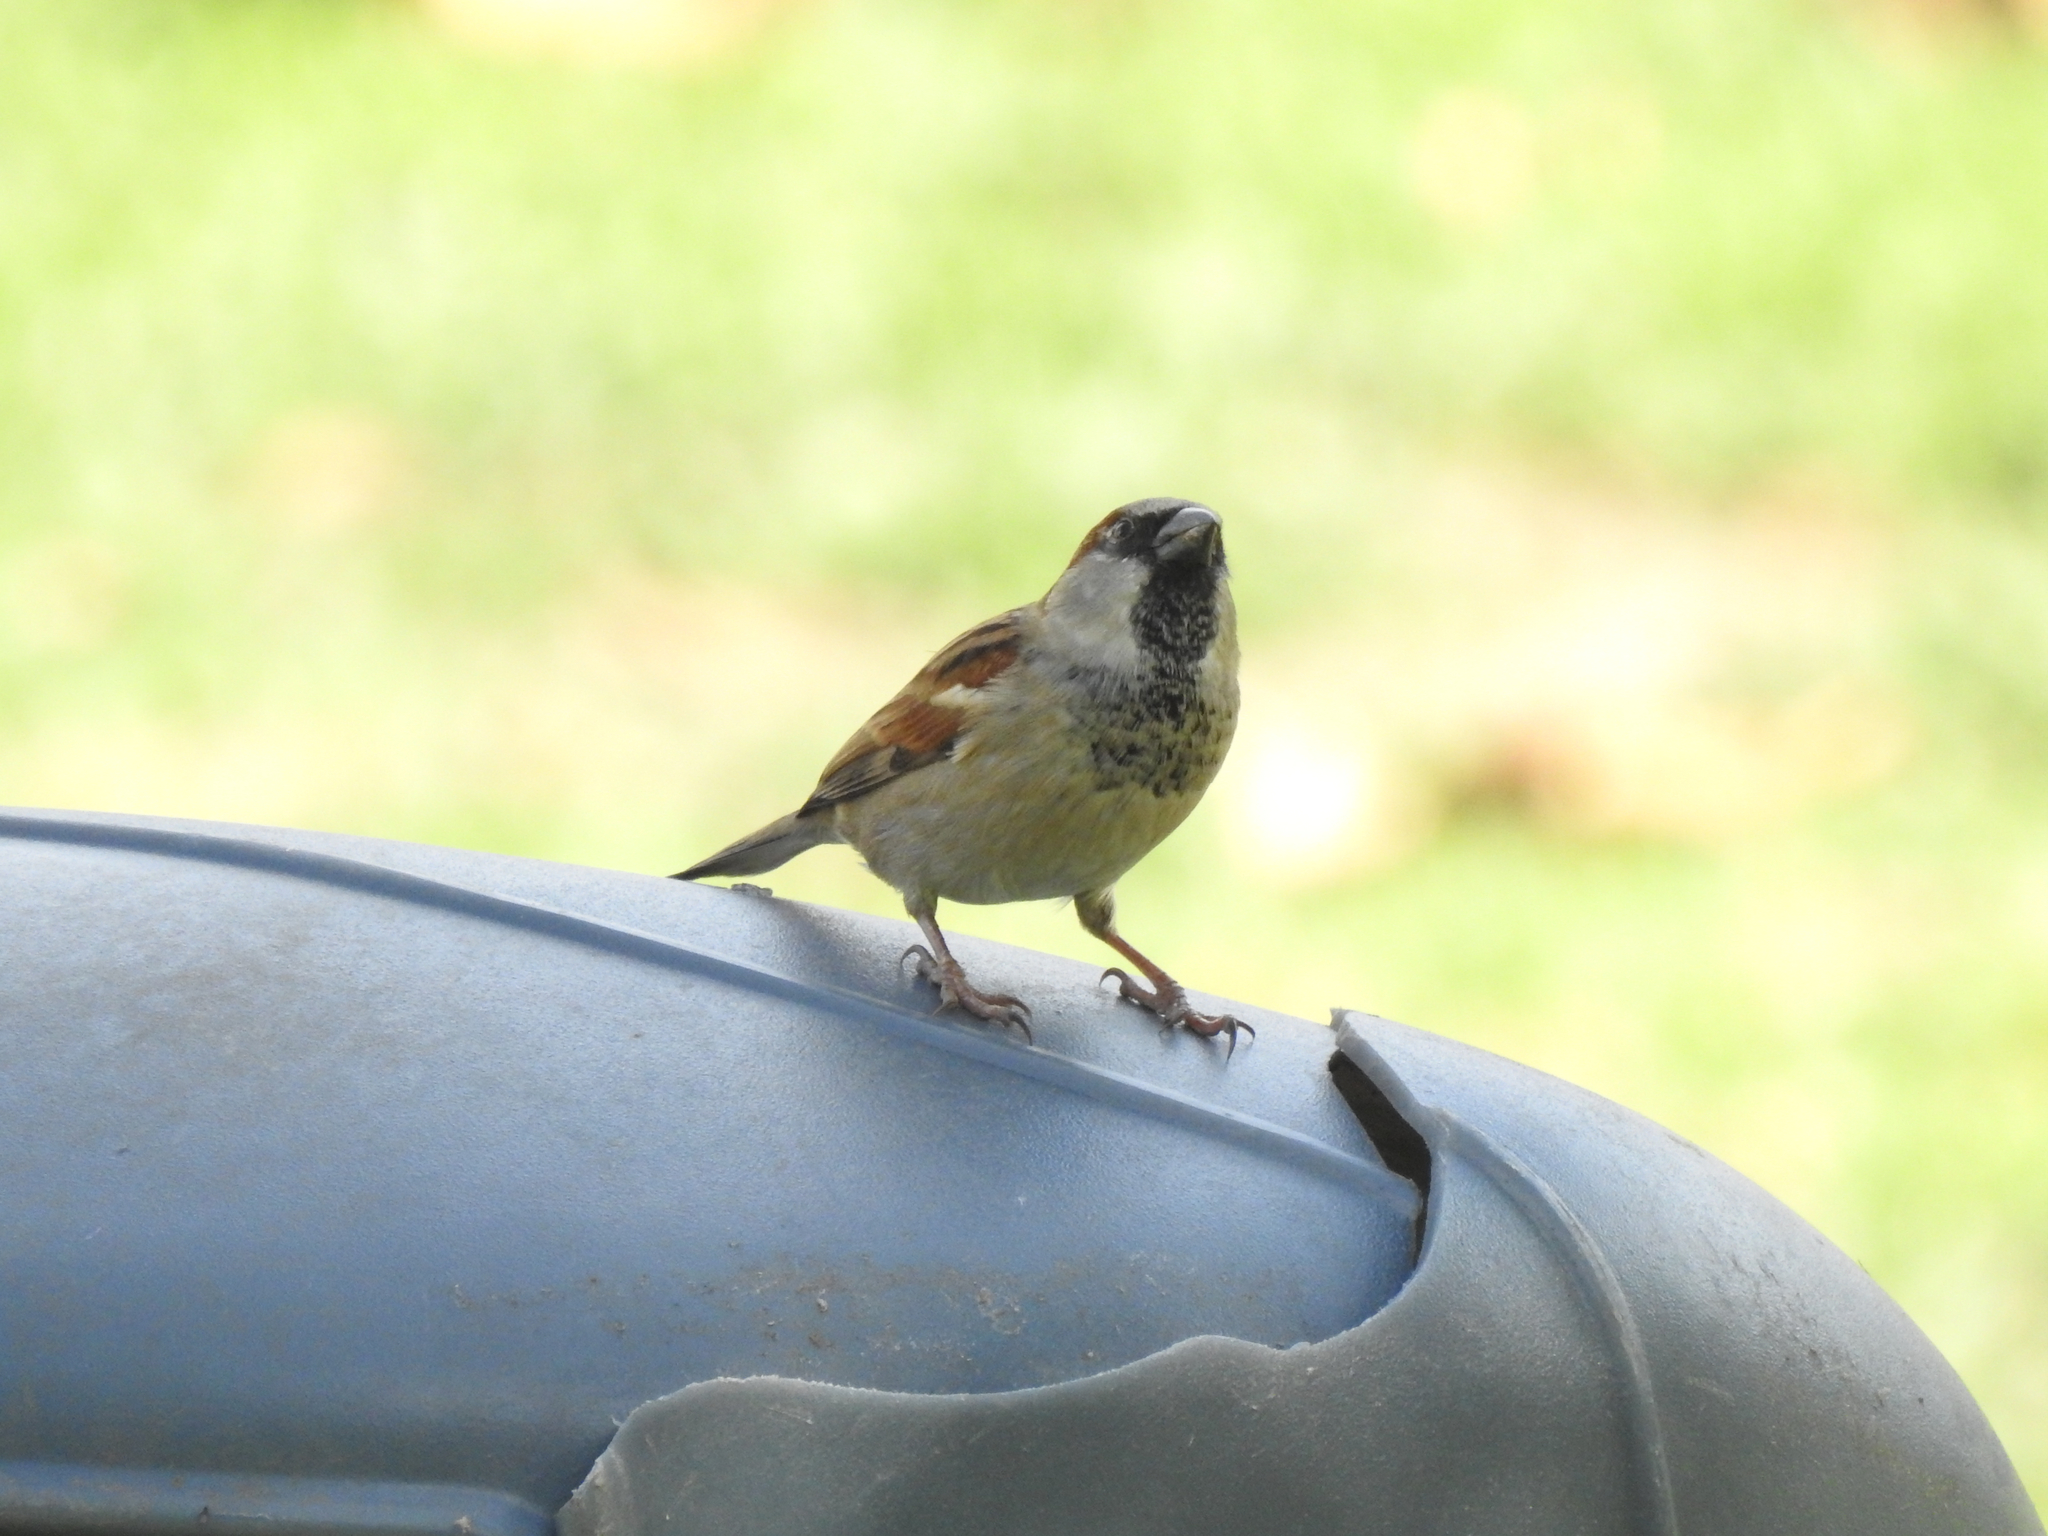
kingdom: Animalia
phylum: Chordata
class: Aves
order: Passeriformes
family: Passeridae
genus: Passer
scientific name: Passer domesticus
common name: House sparrow
